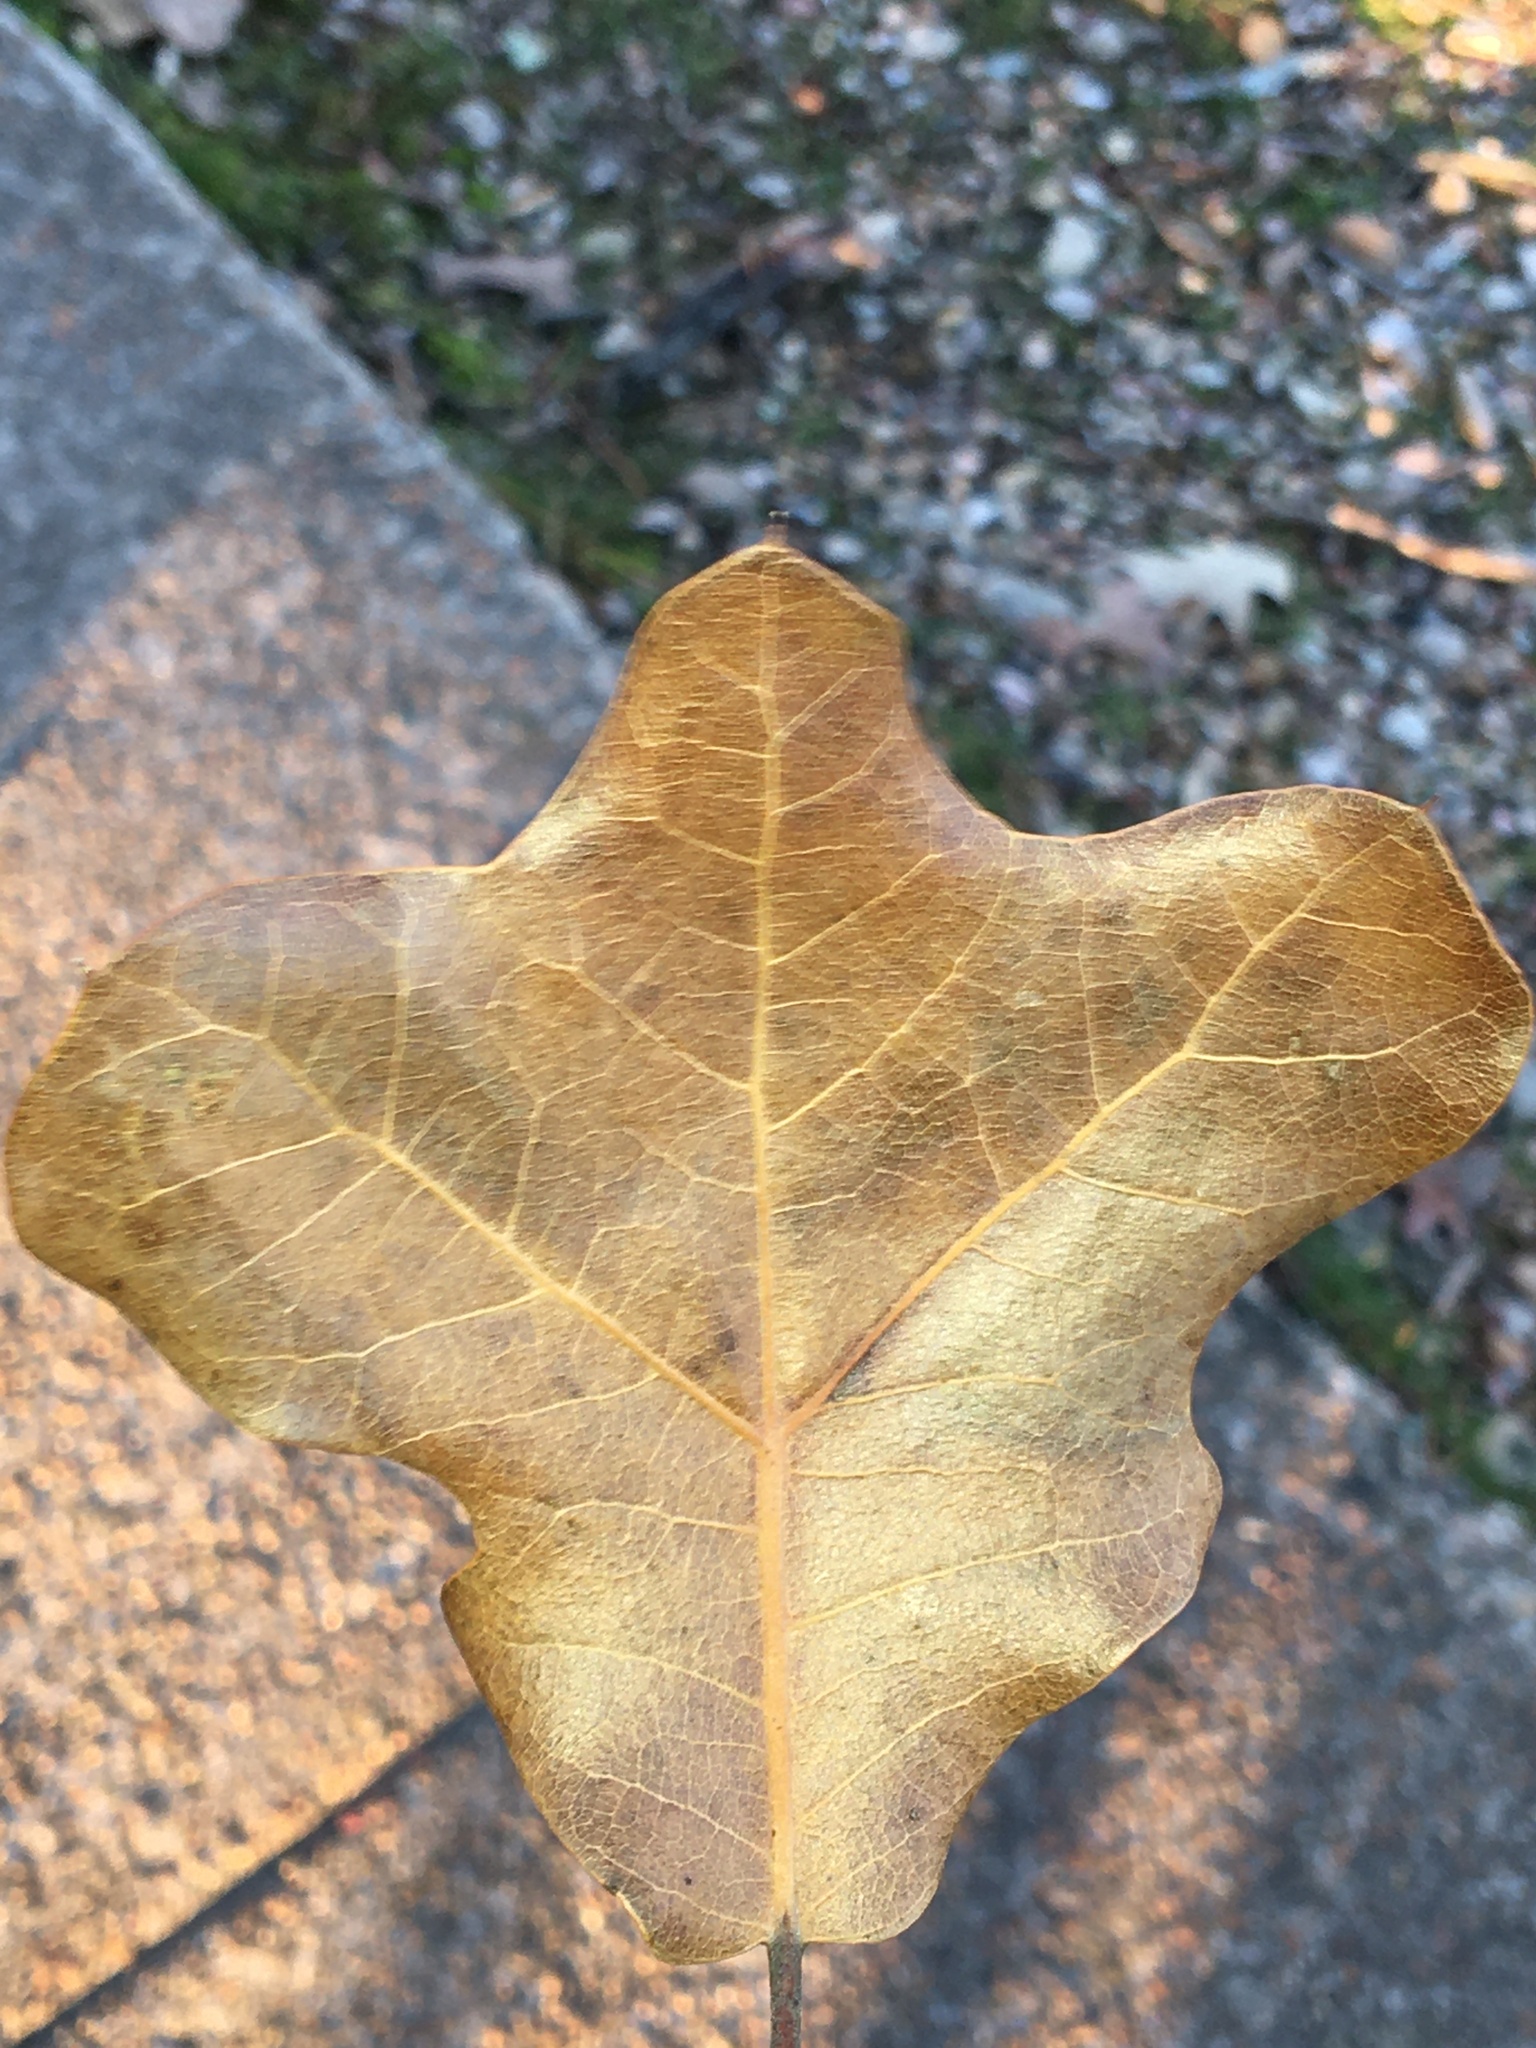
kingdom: Plantae
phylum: Tracheophyta
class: Magnoliopsida
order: Fagales
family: Fagaceae
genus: Quercus
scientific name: Quercus marilandica
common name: Blackjack oak
